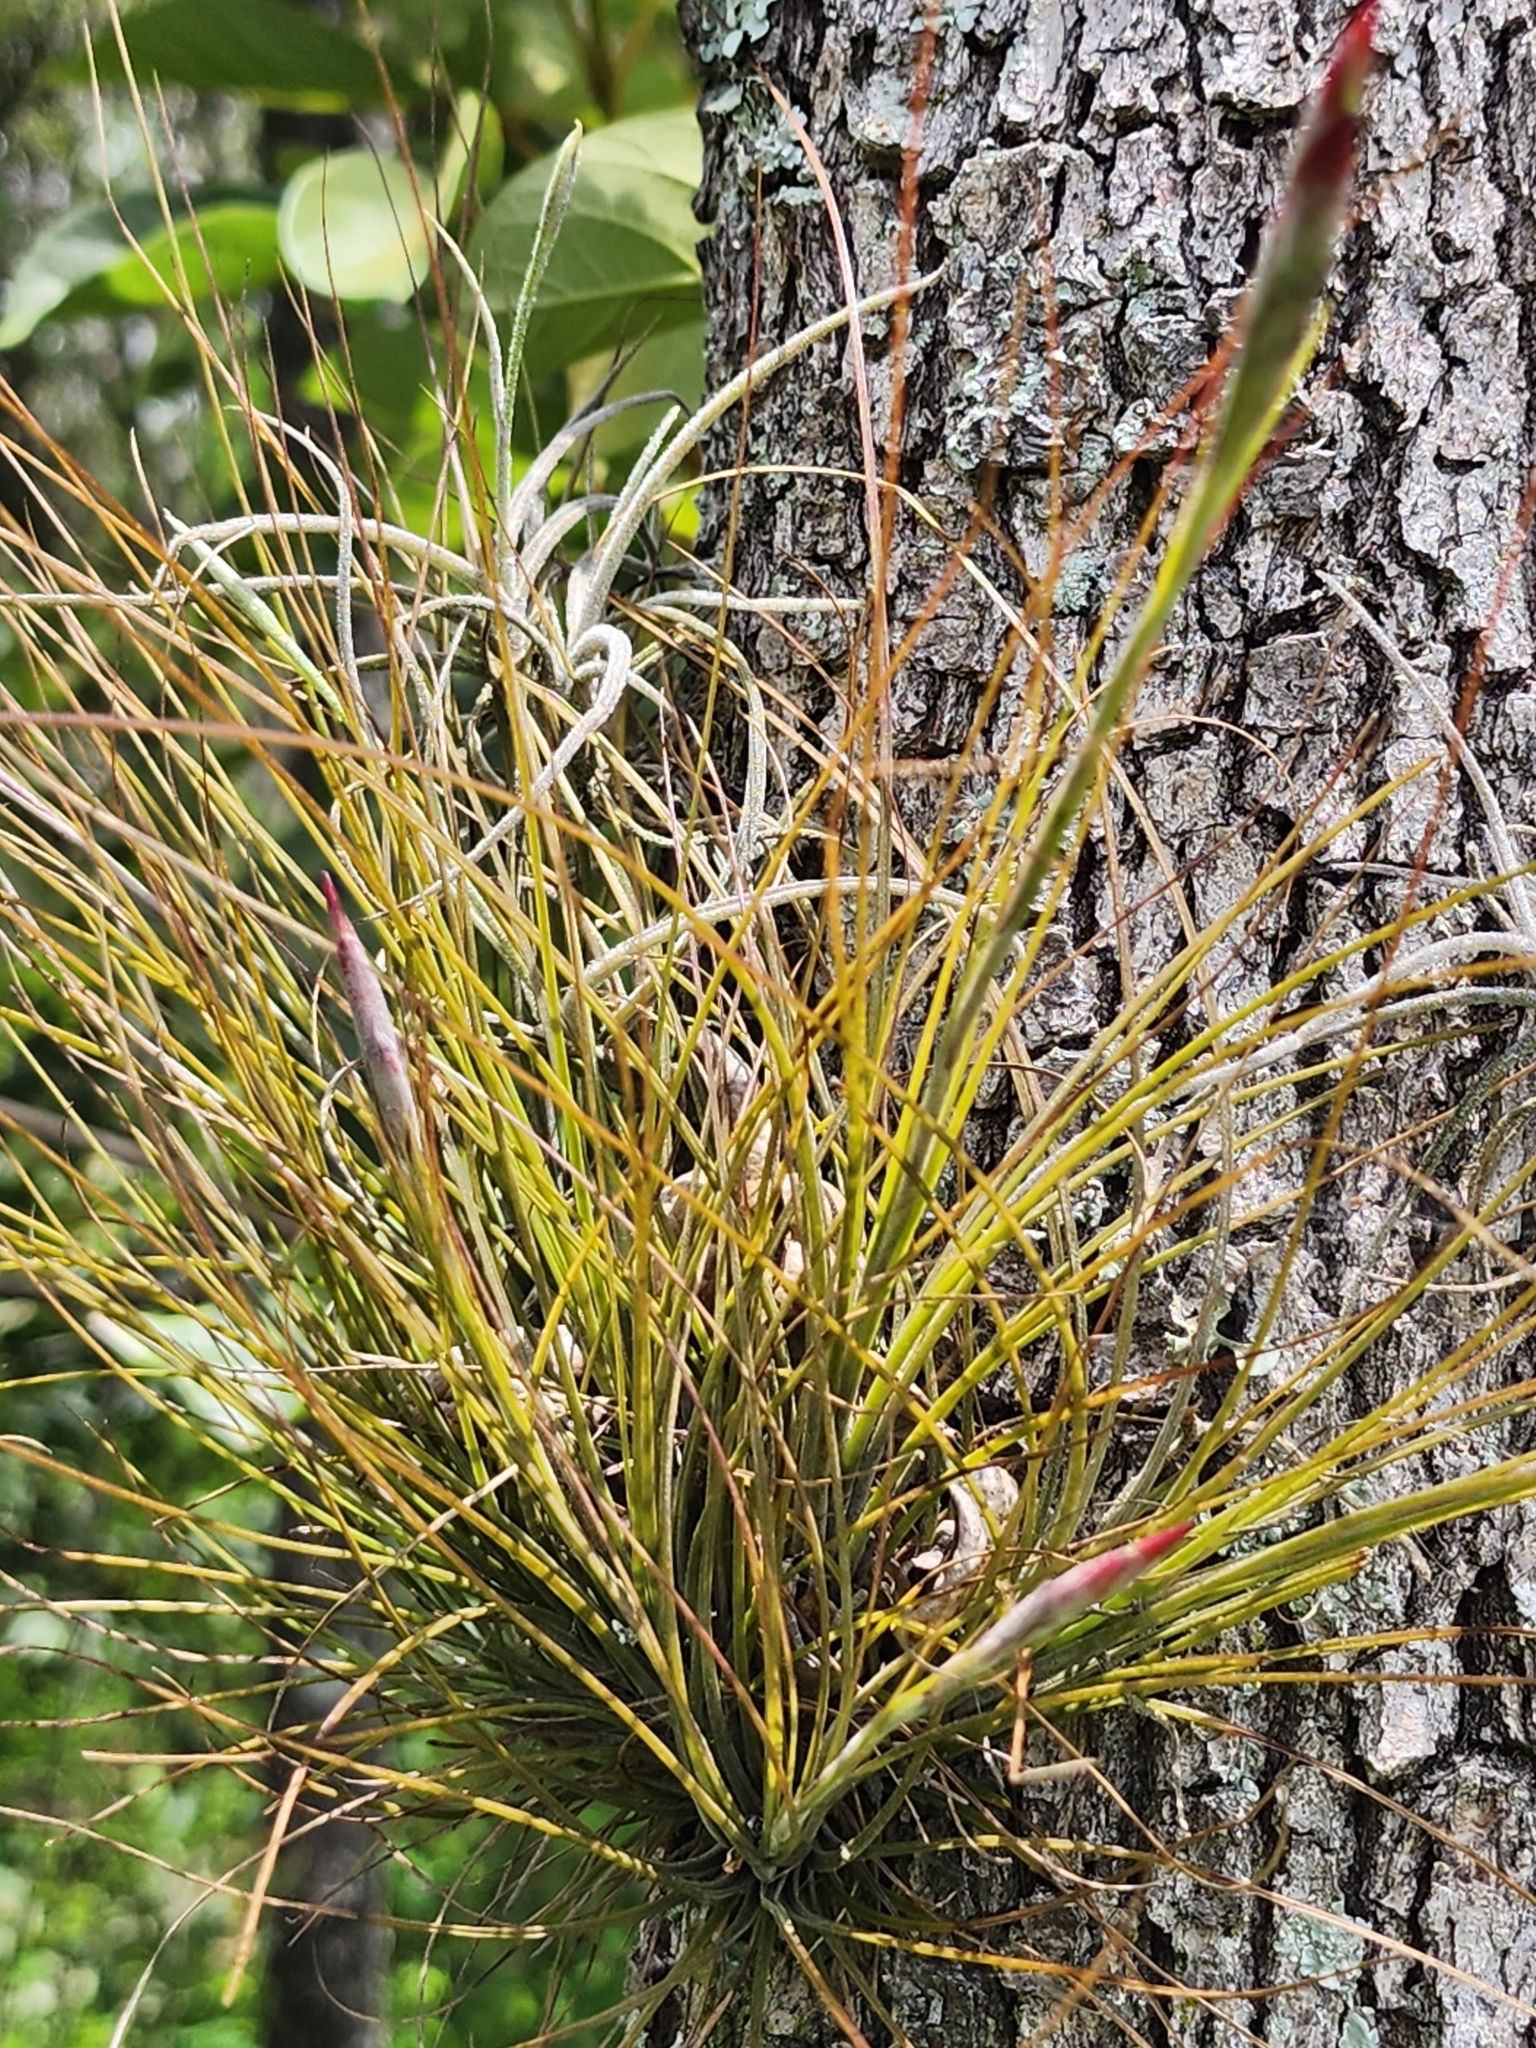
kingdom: Plantae
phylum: Tracheophyta
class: Liliopsida
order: Poales
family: Bromeliaceae
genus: Tillandsia
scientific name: Tillandsia setacea
